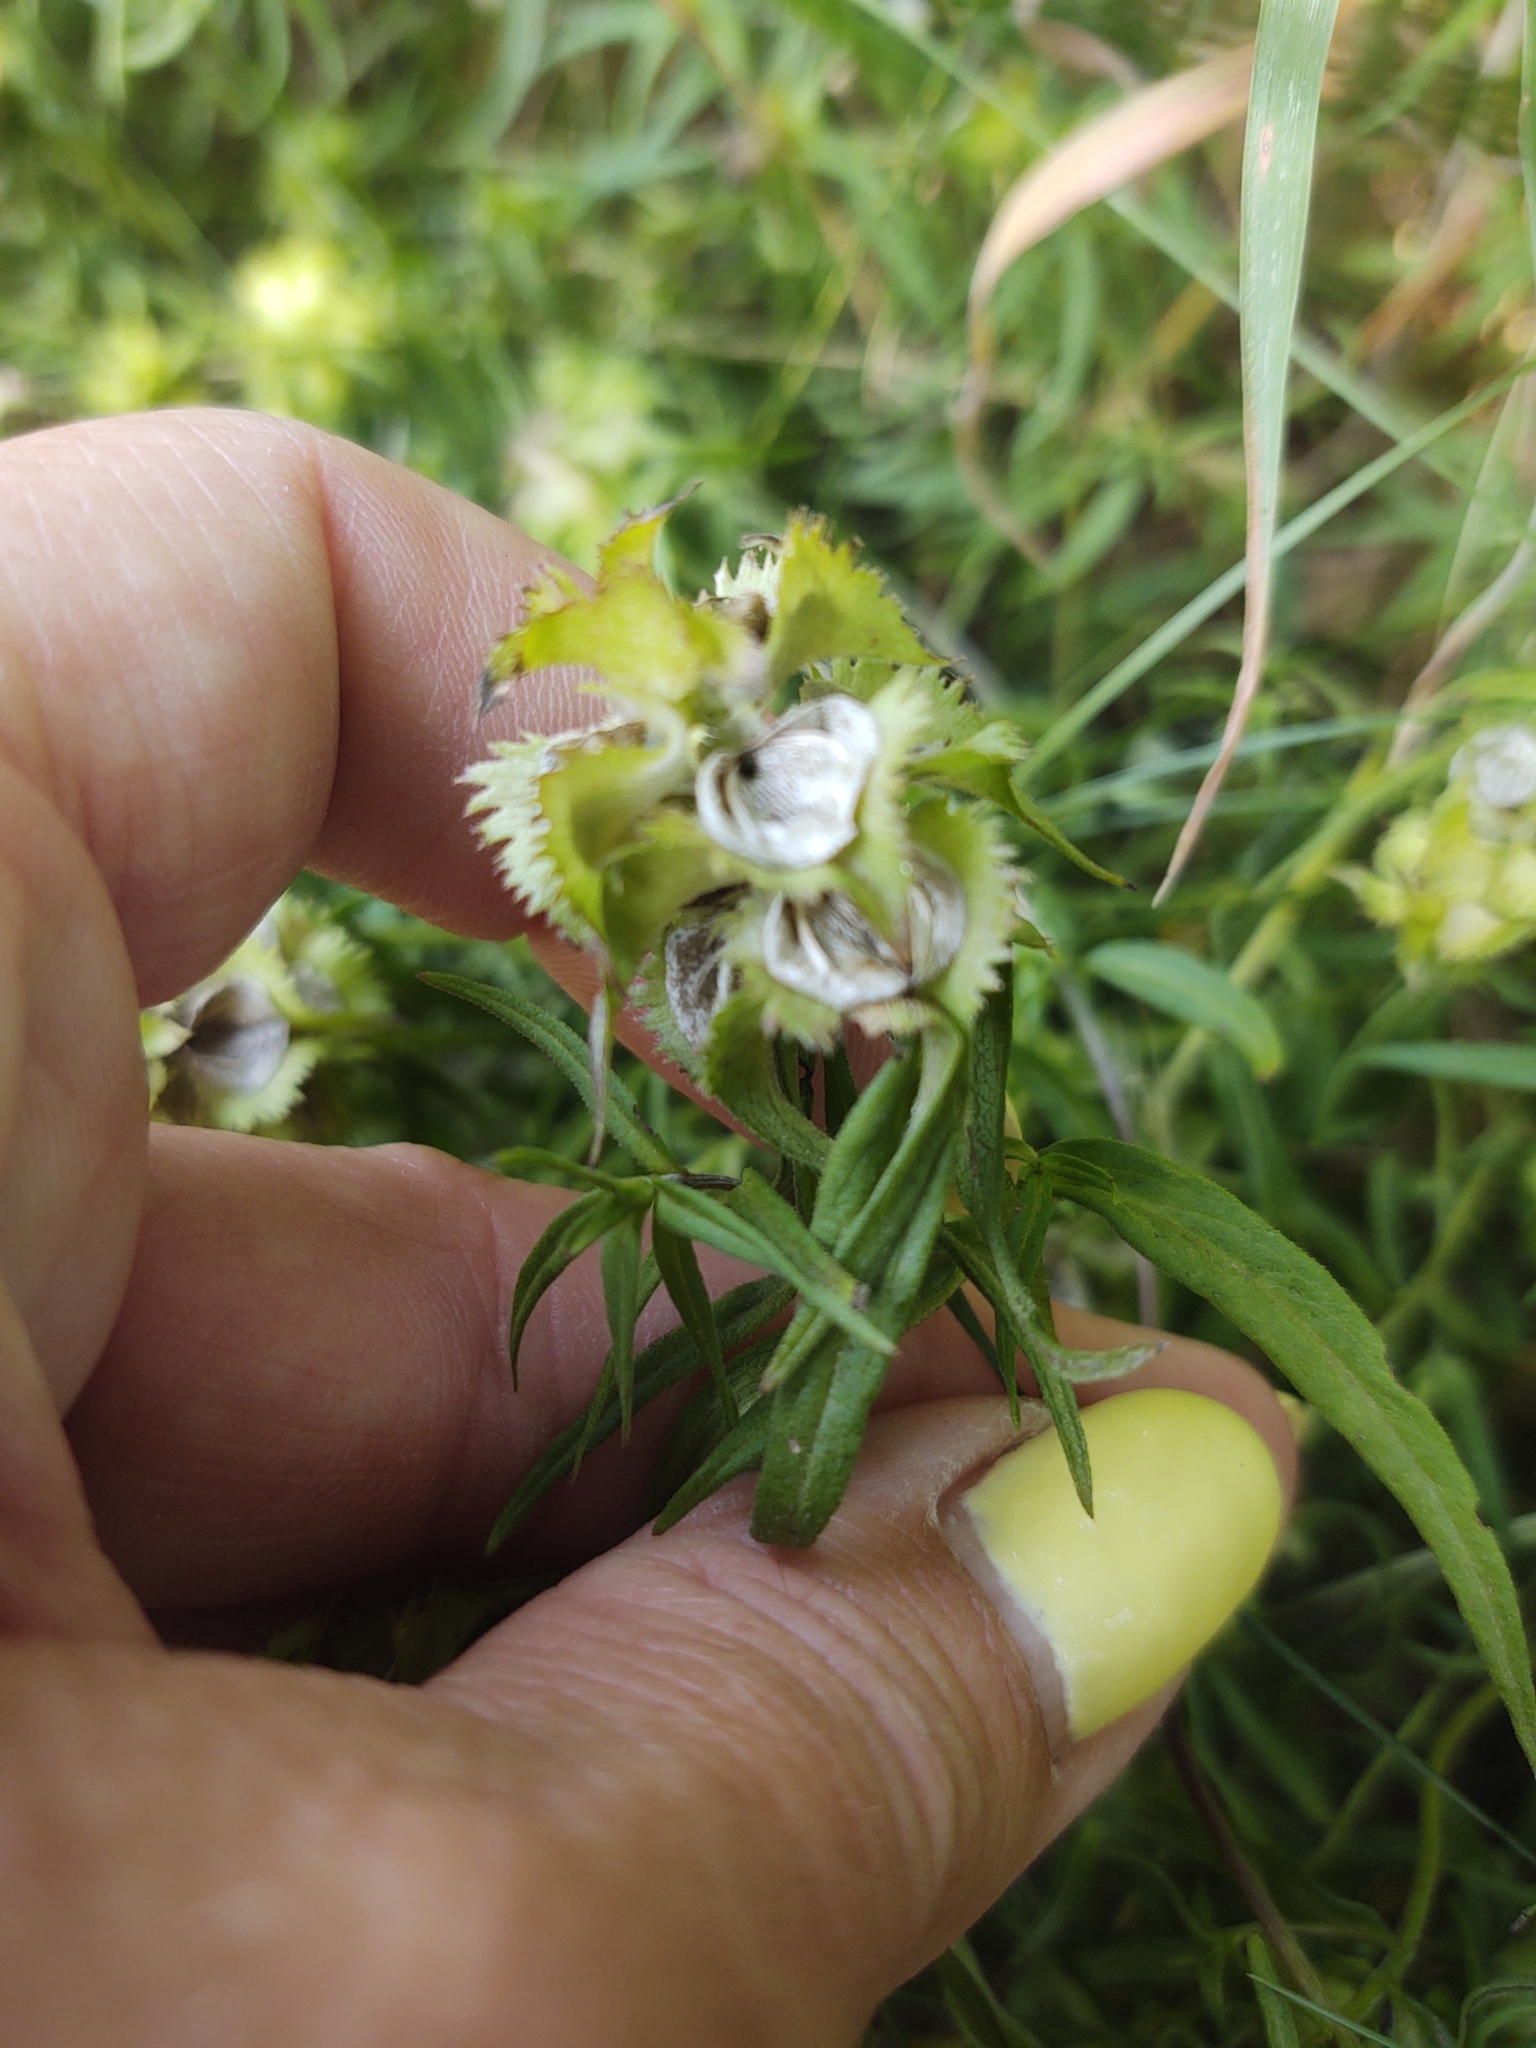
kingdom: Plantae
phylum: Tracheophyta
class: Magnoliopsida
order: Lamiales
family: Orobanchaceae
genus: Melampyrum
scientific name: Melampyrum cristatum
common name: Crested cow-wheat
